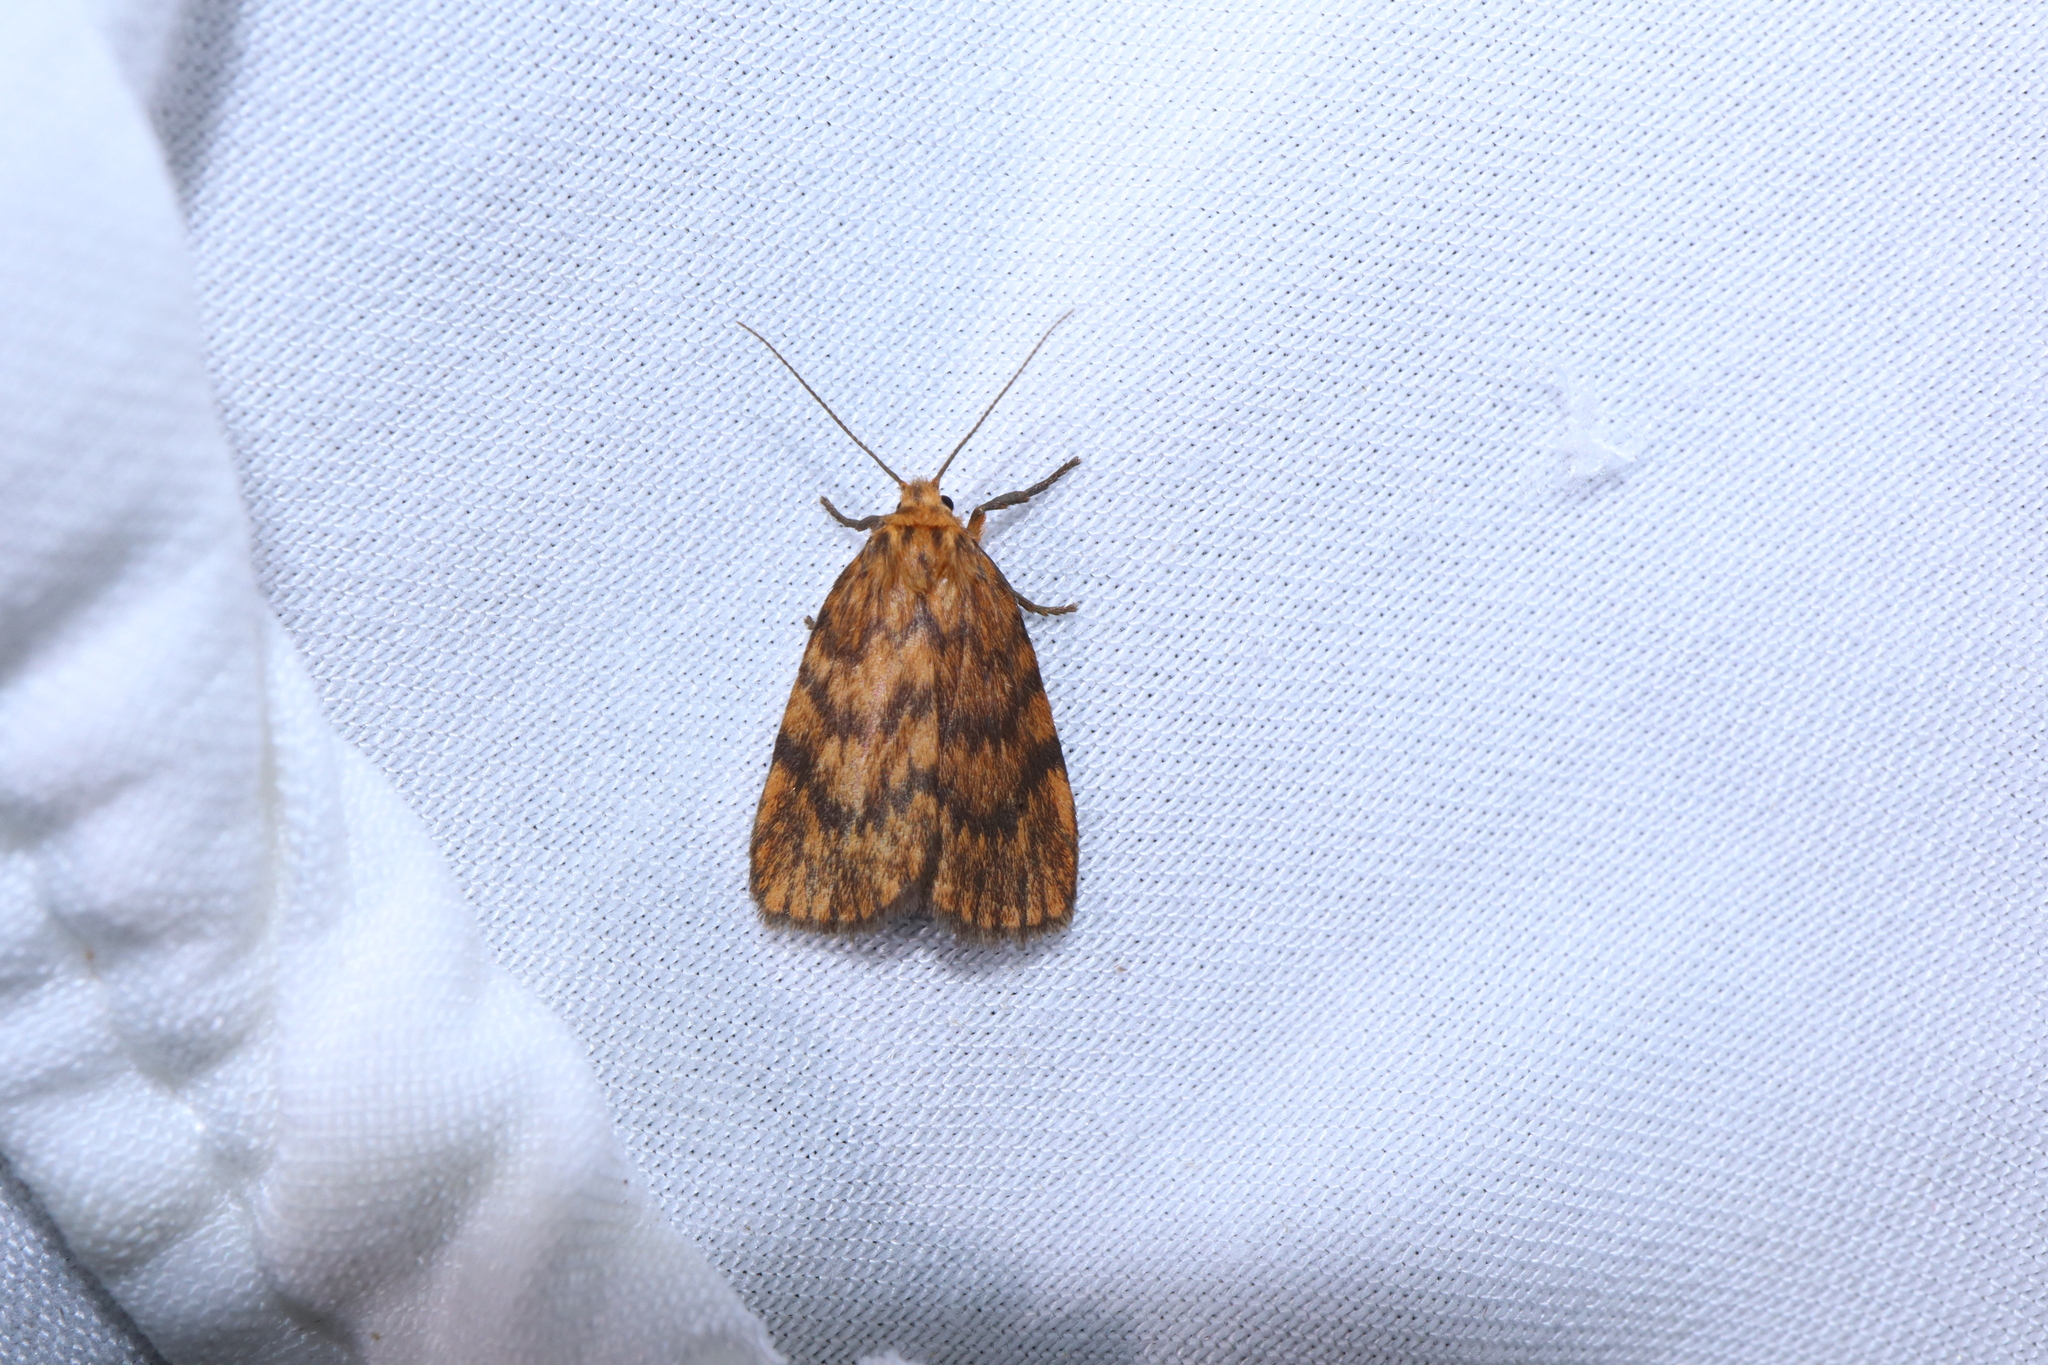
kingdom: Animalia
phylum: Arthropoda
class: Insecta
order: Lepidoptera
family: Erebidae
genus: Cyme
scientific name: Cyme structa
